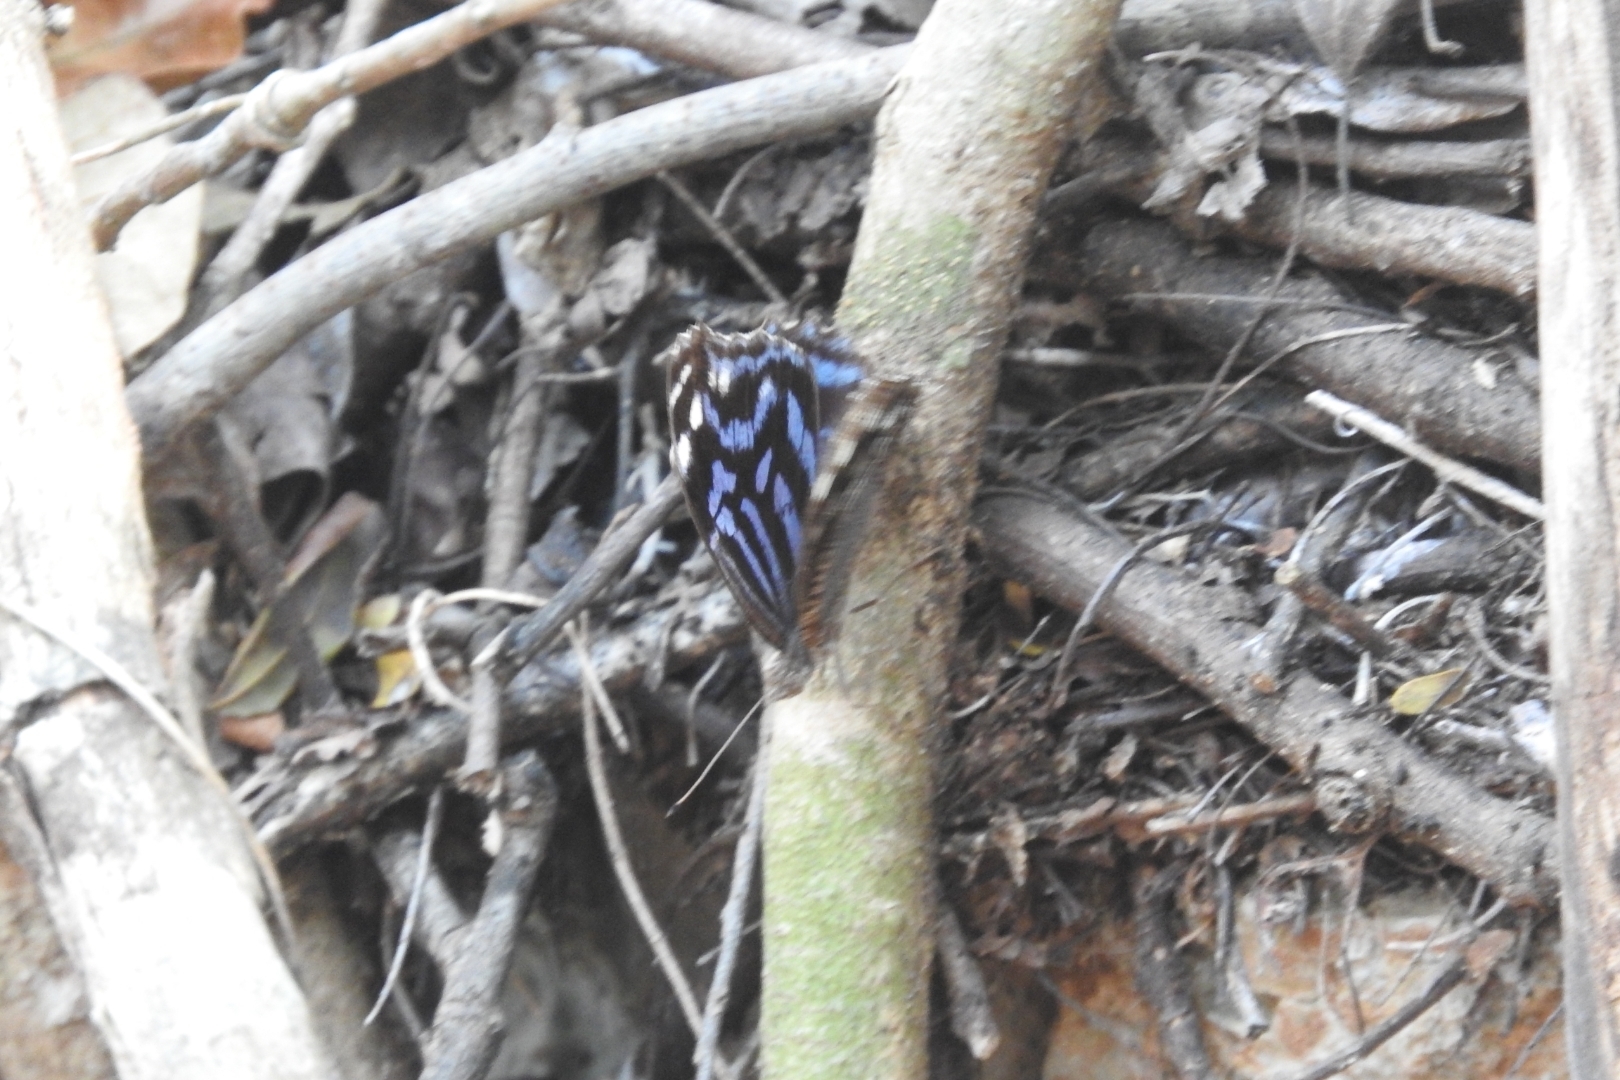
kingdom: Animalia
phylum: Arthropoda
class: Insecta
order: Lepidoptera
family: Nymphalidae
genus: Myscelia
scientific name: Myscelia ethusa
